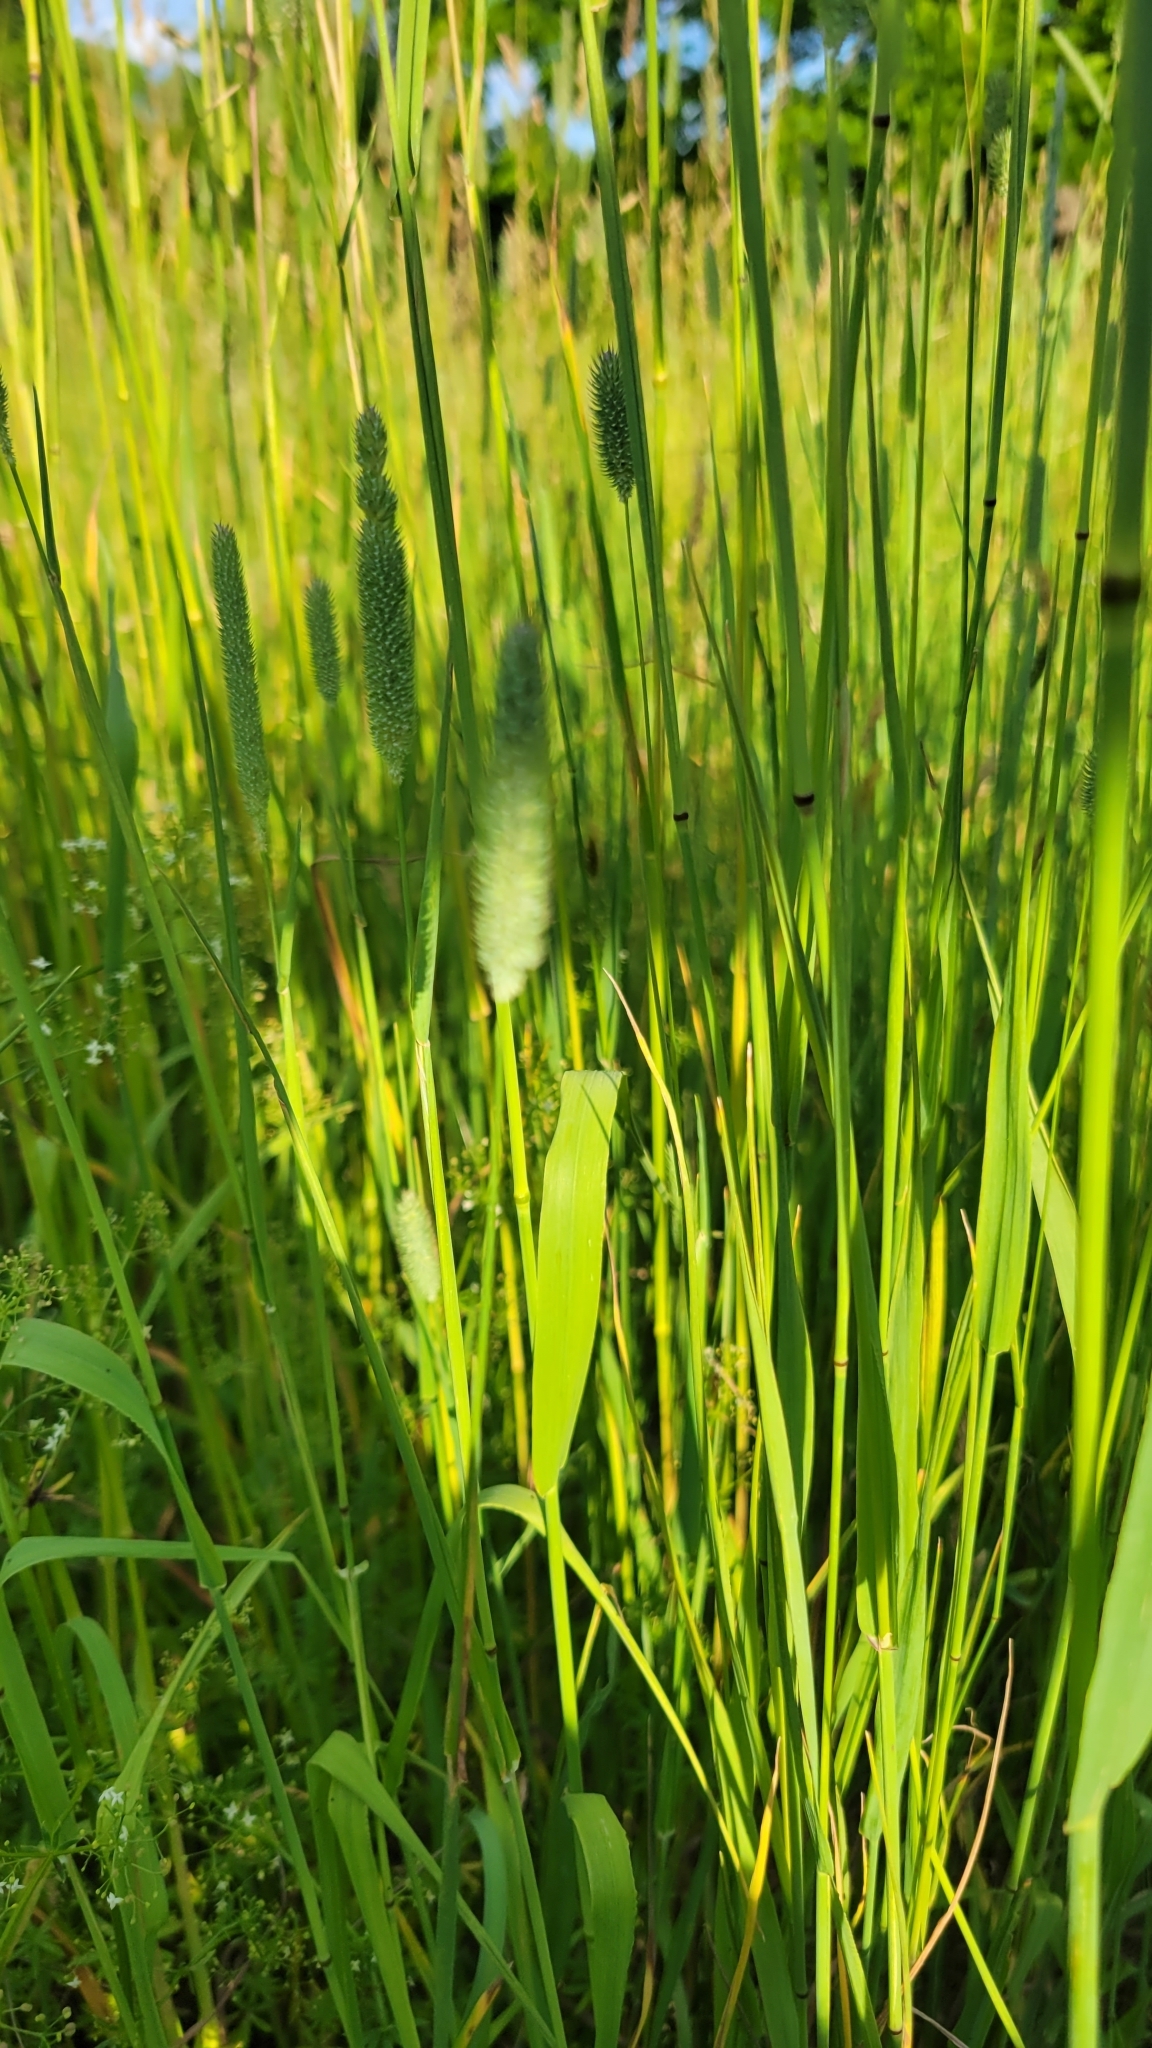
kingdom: Plantae
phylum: Tracheophyta
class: Liliopsida
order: Poales
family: Poaceae
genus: Phleum
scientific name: Phleum pratense
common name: Timothy grass
